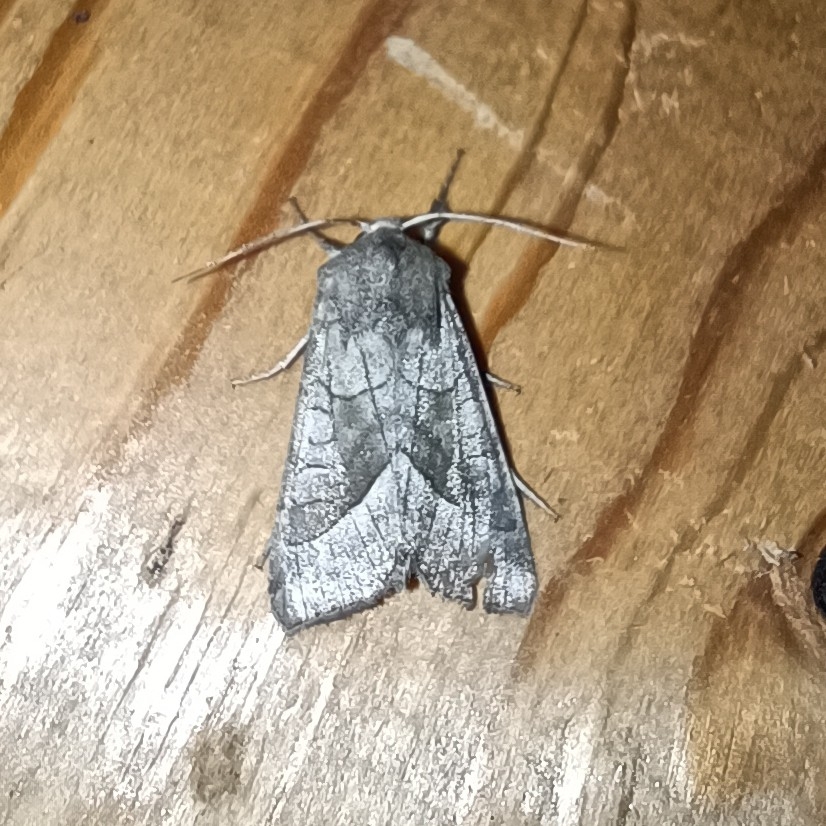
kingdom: Animalia
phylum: Arthropoda
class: Insecta
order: Lepidoptera
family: Noctuidae
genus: Hydraecia
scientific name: Hydraecia micacea
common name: Rosy rustic
